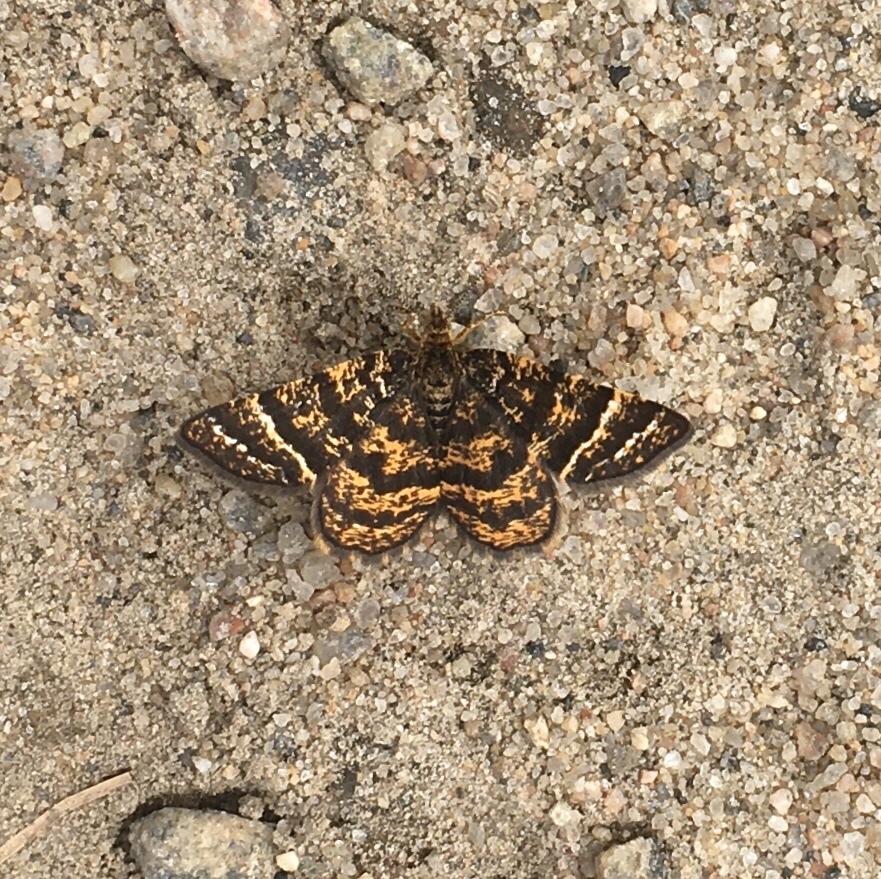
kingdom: Animalia
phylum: Arthropoda
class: Insecta
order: Lepidoptera
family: Geometridae
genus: Macaria
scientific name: Macaria truncataria
